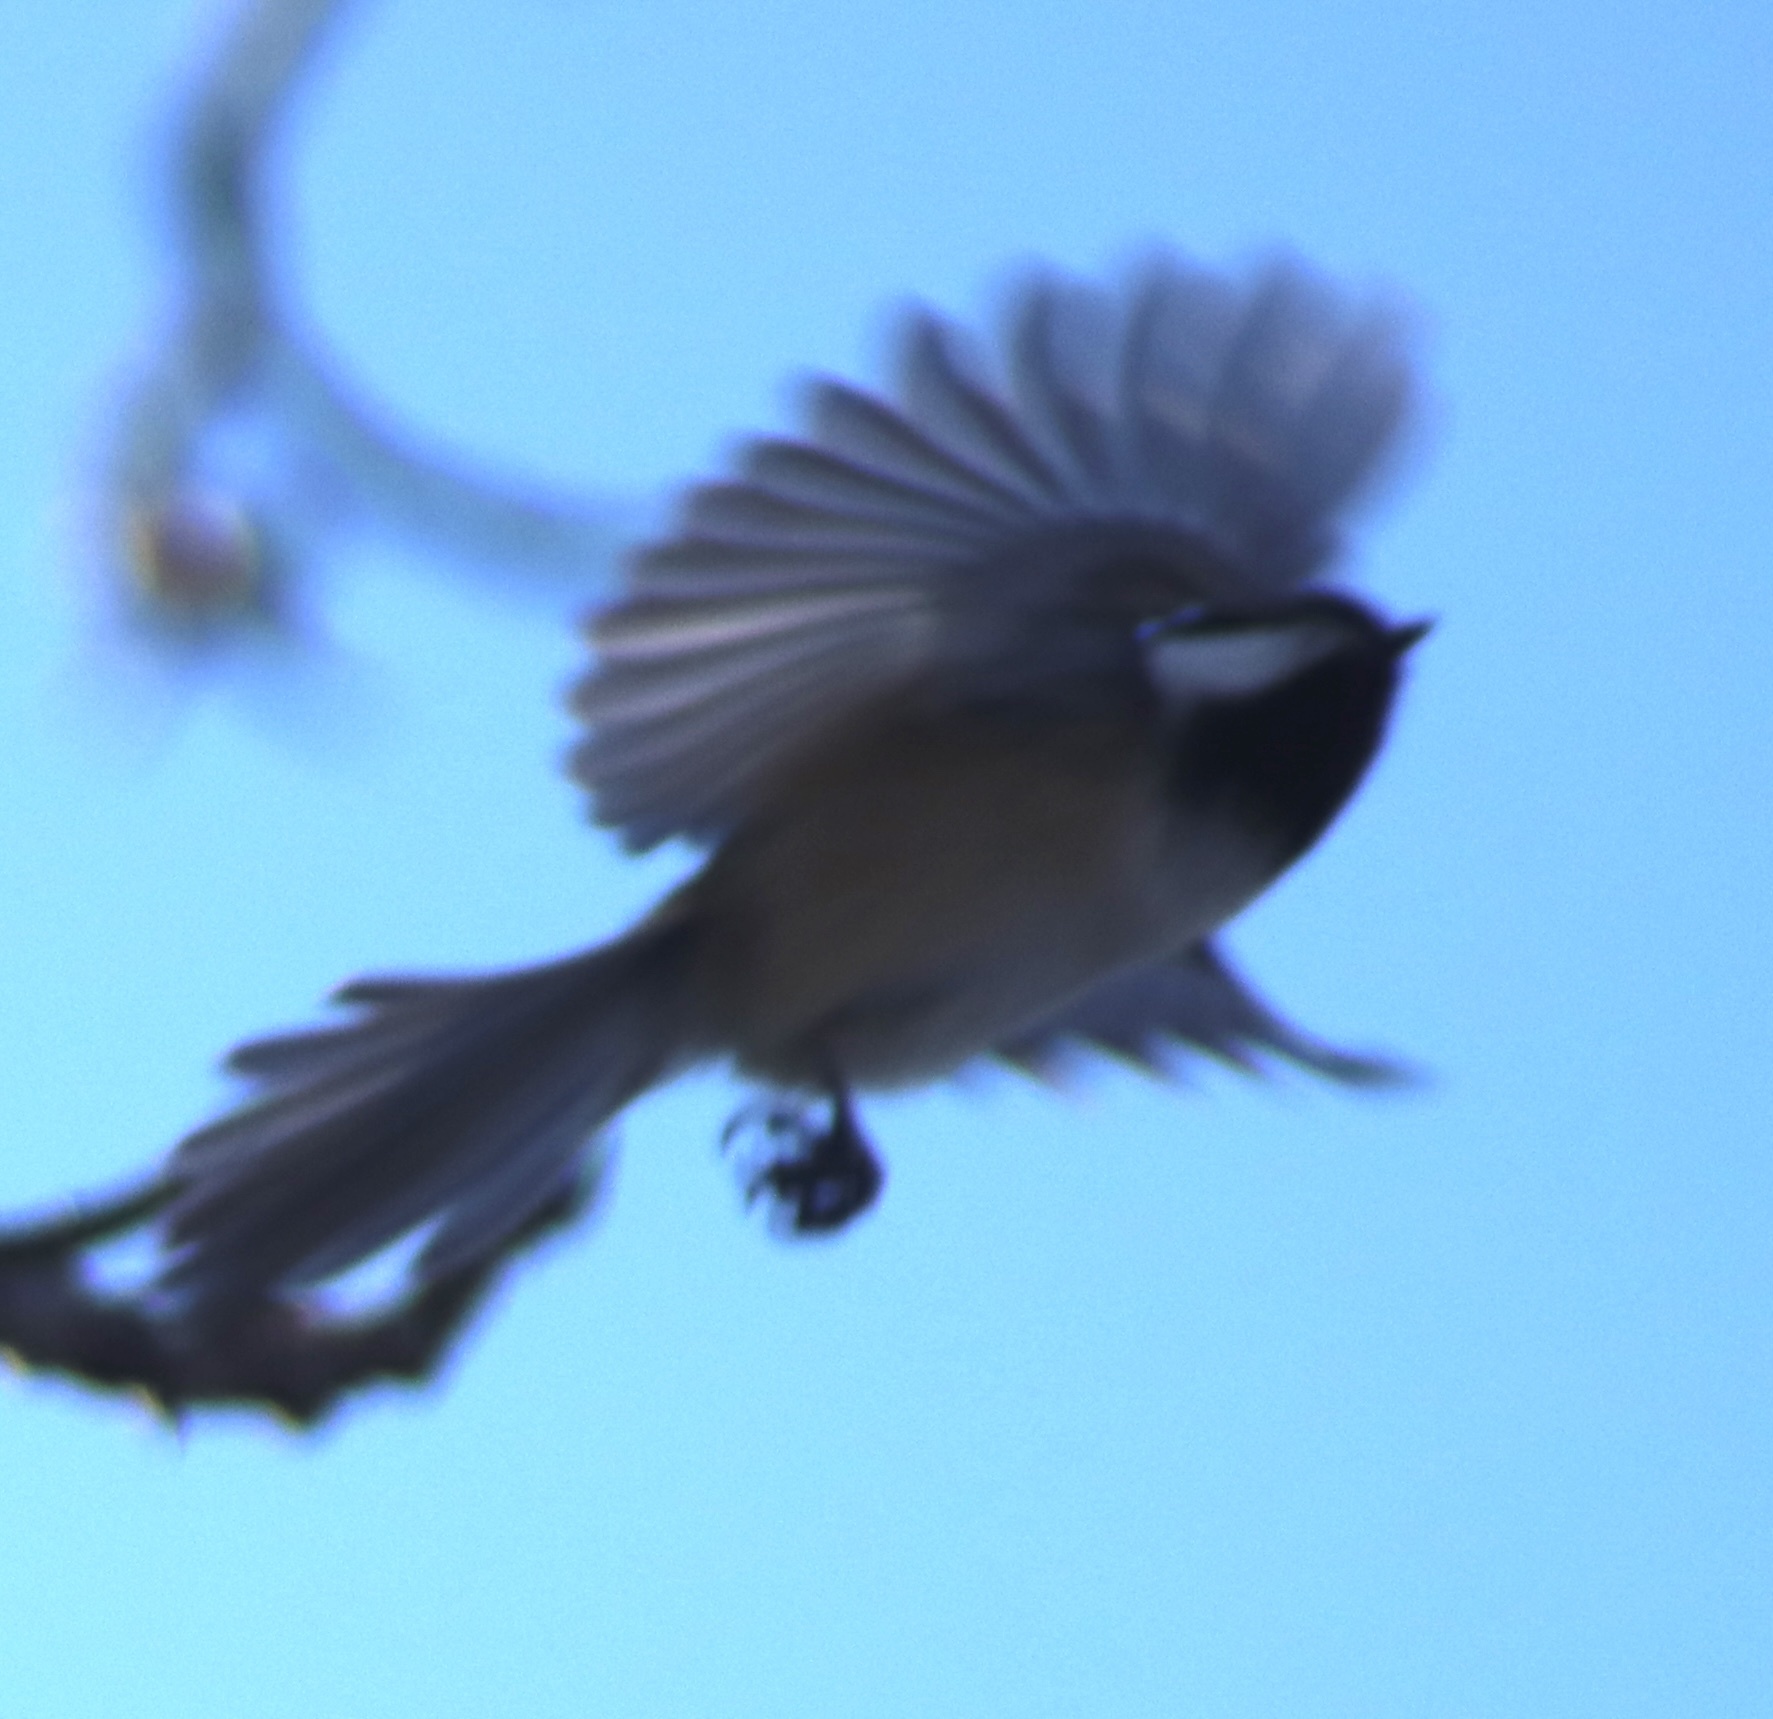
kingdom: Animalia
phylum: Chordata
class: Aves
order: Passeriformes
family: Paridae
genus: Poecile
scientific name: Poecile atricapillus
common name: Black-capped chickadee
